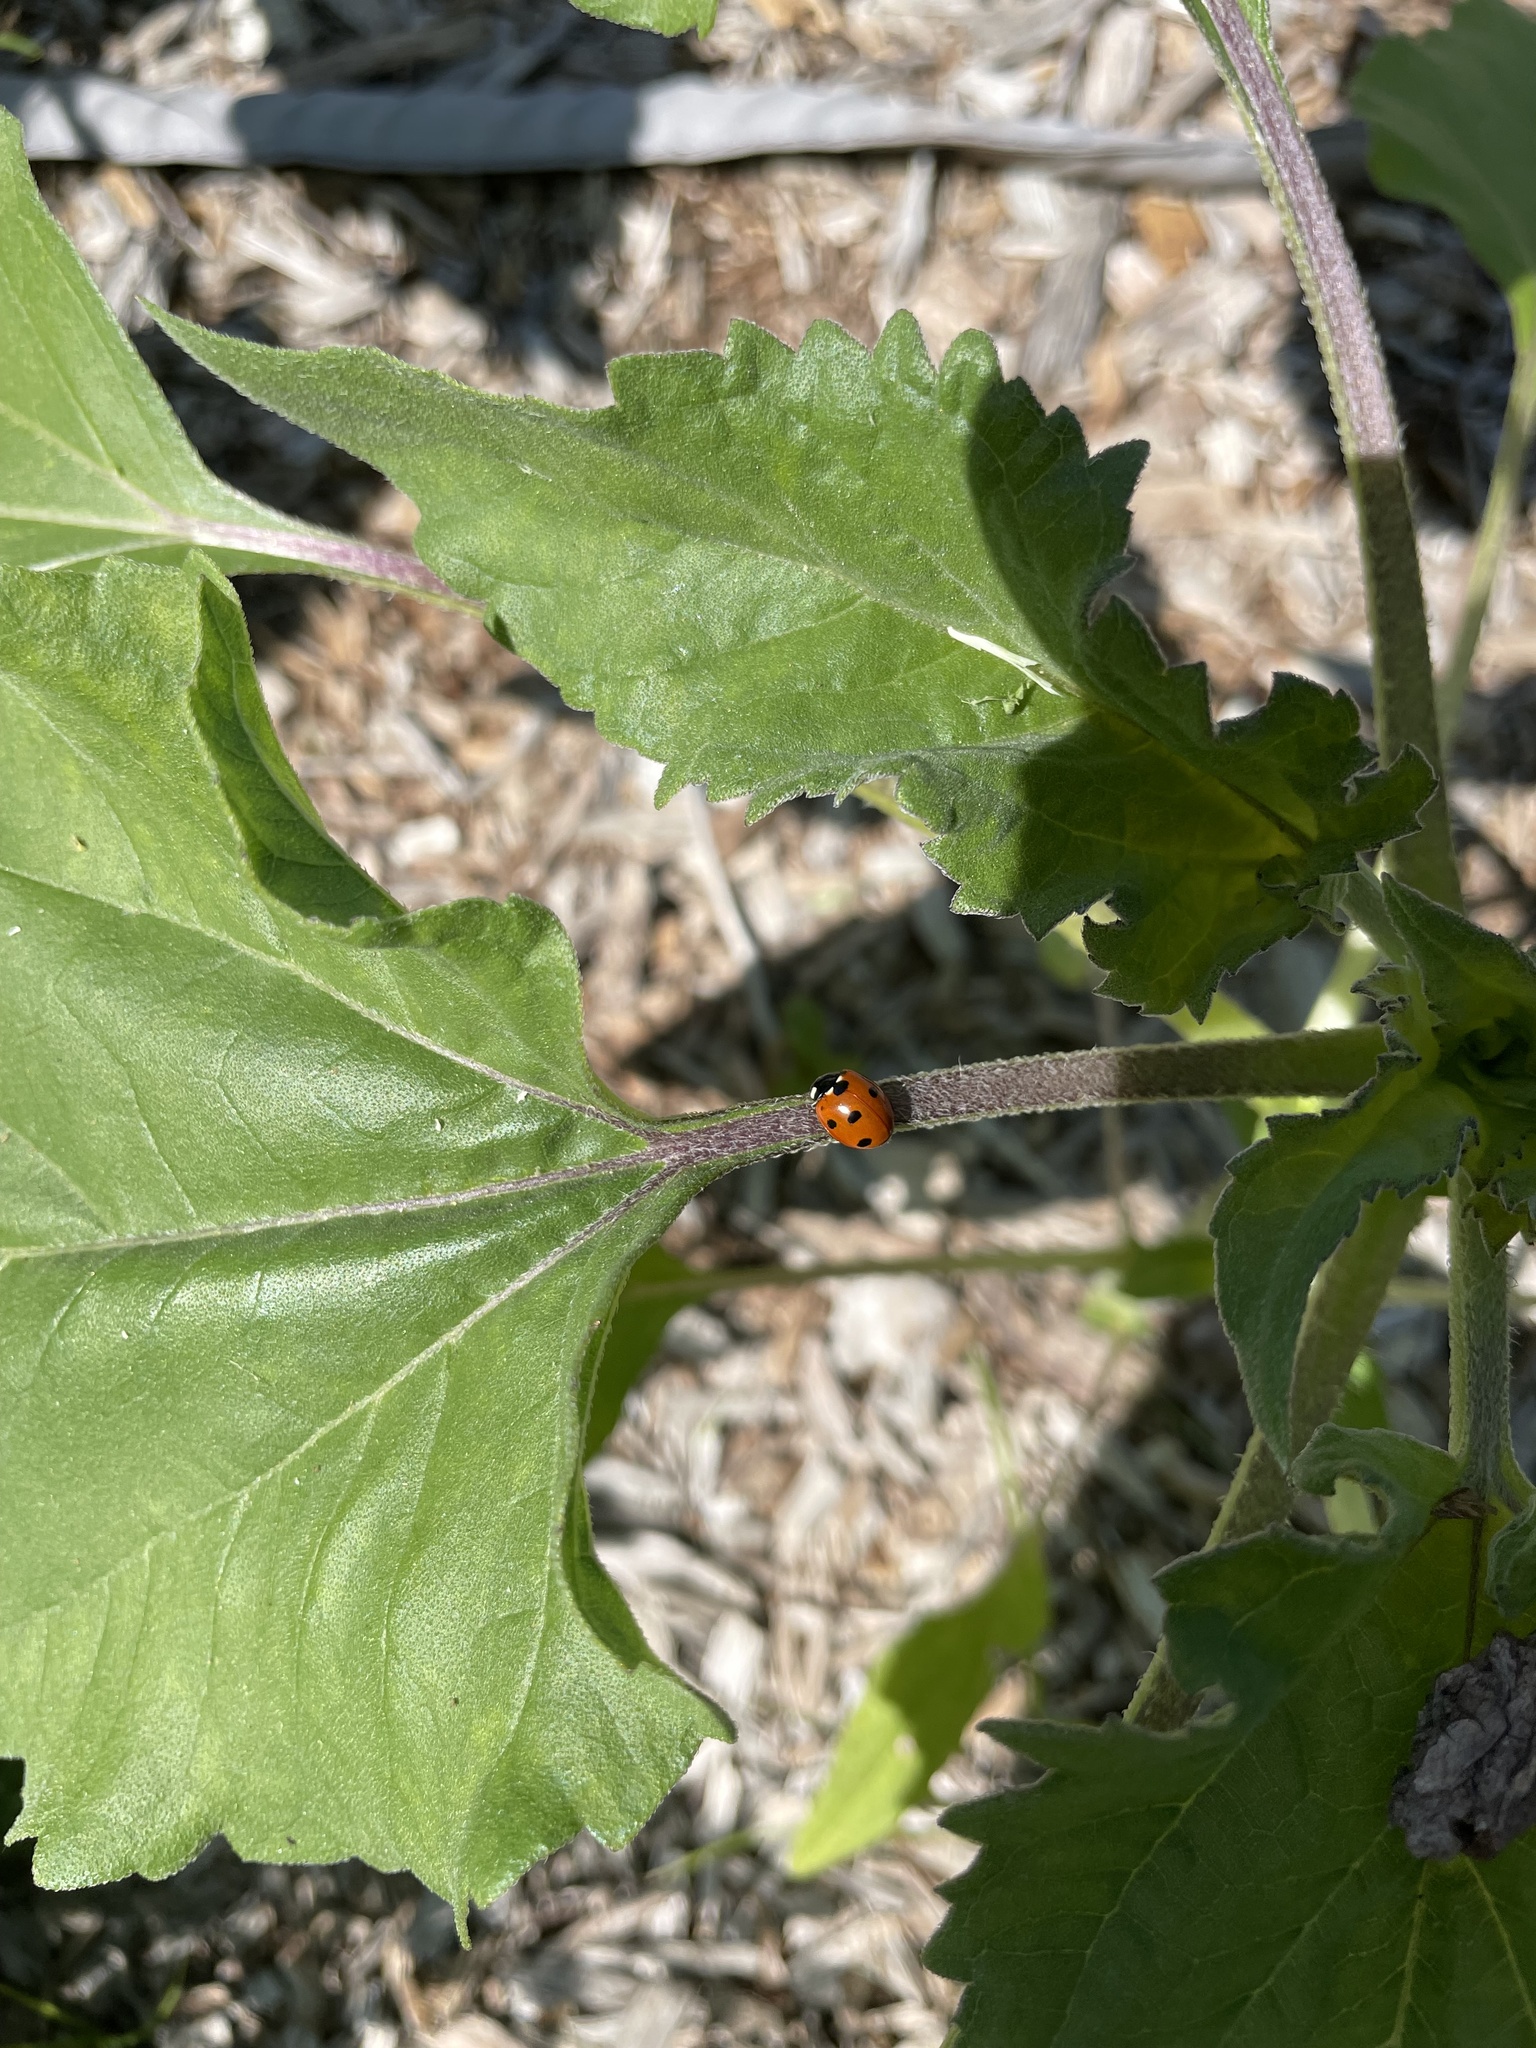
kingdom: Animalia
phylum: Arthropoda
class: Insecta
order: Coleoptera
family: Coccinellidae
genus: Coccinella
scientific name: Coccinella septempunctata
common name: Sevenspotted lady beetle
